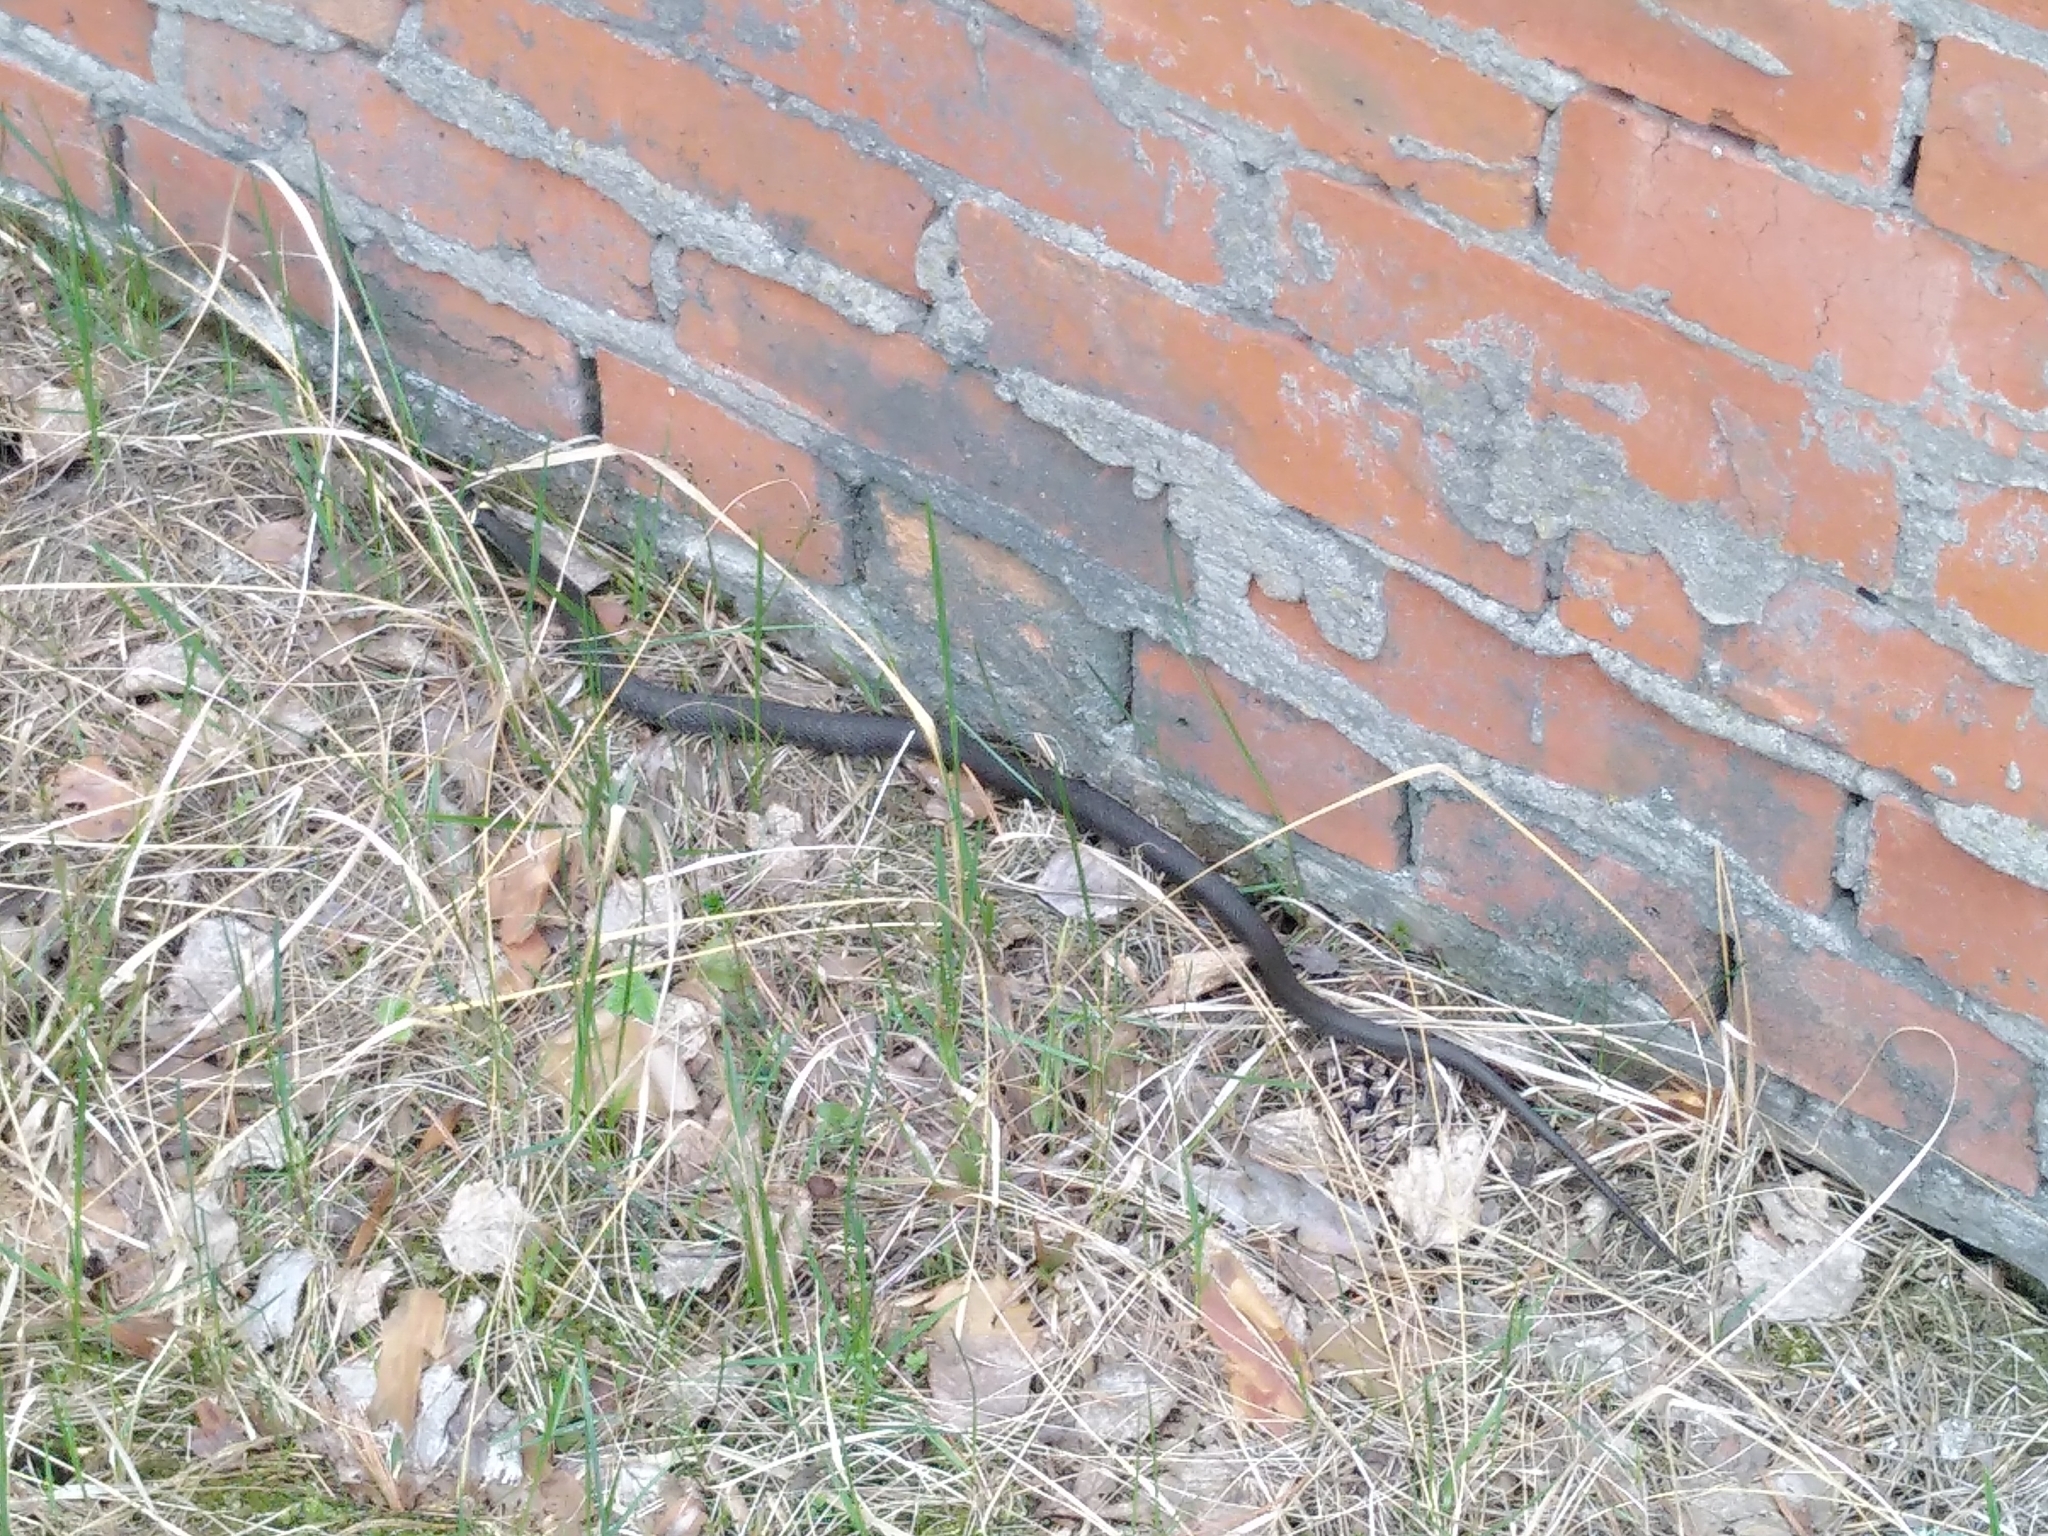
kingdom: Animalia
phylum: Chordata
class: Squamata
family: Colubridae
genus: Natrix
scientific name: Natrix natrix
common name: Grass snake
